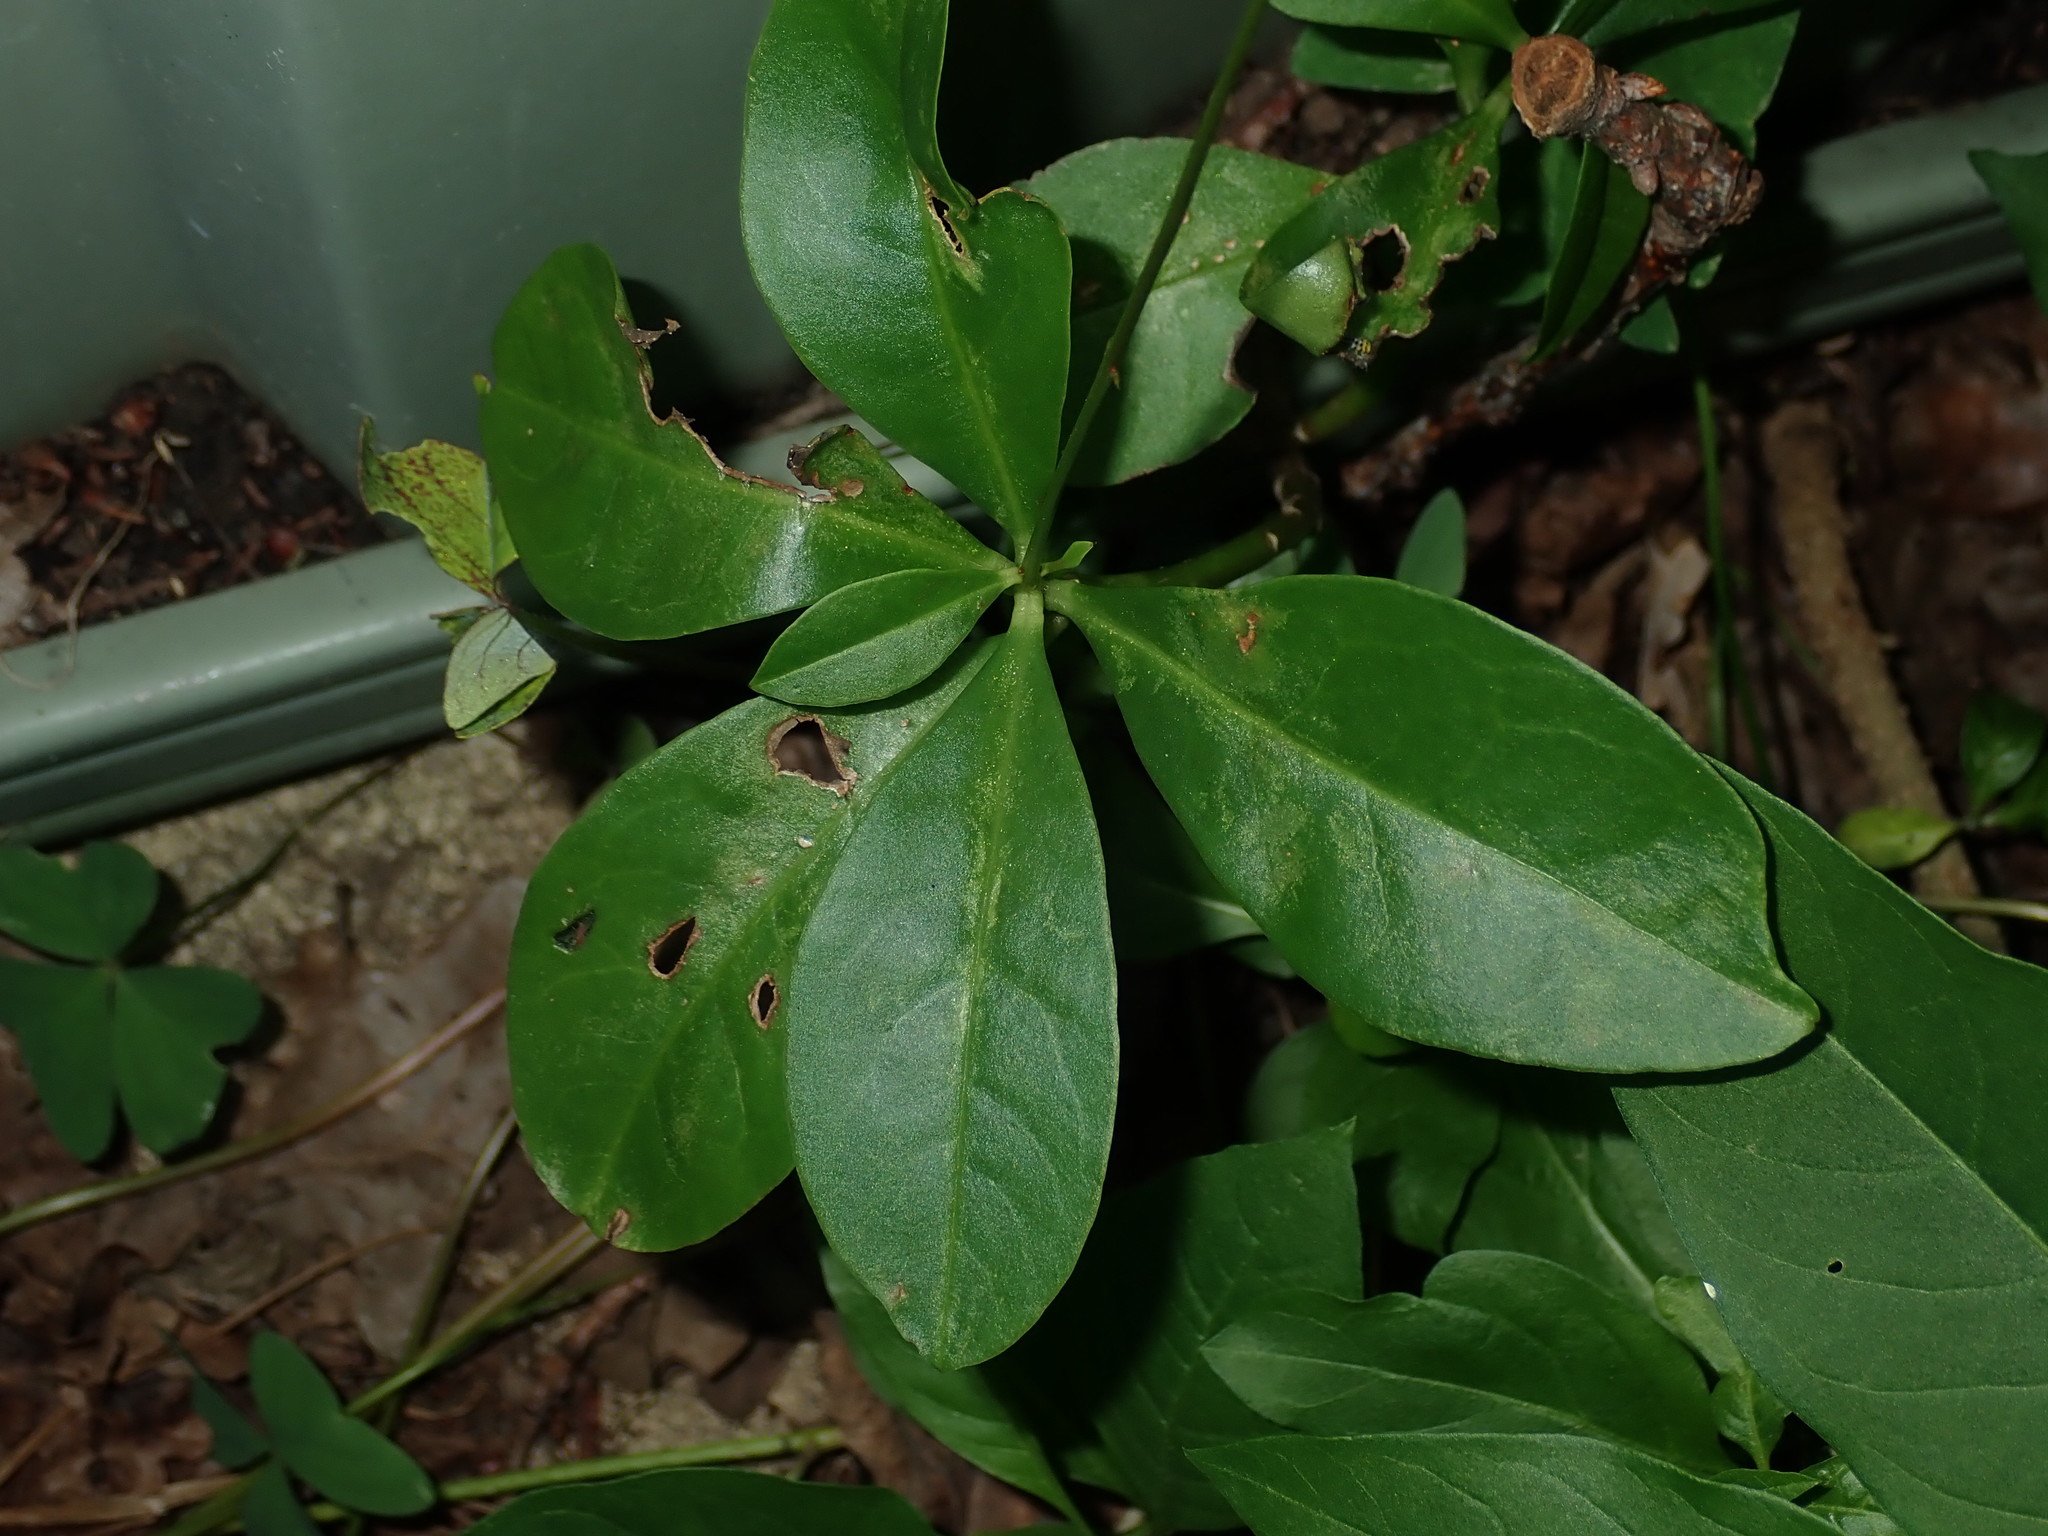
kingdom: Plantae
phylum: Tracheophyta
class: Magnoliopsida
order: Caryophyllales
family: Talinaceae
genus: Talinum
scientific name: Talinum paniculatum
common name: Jewels of opar
